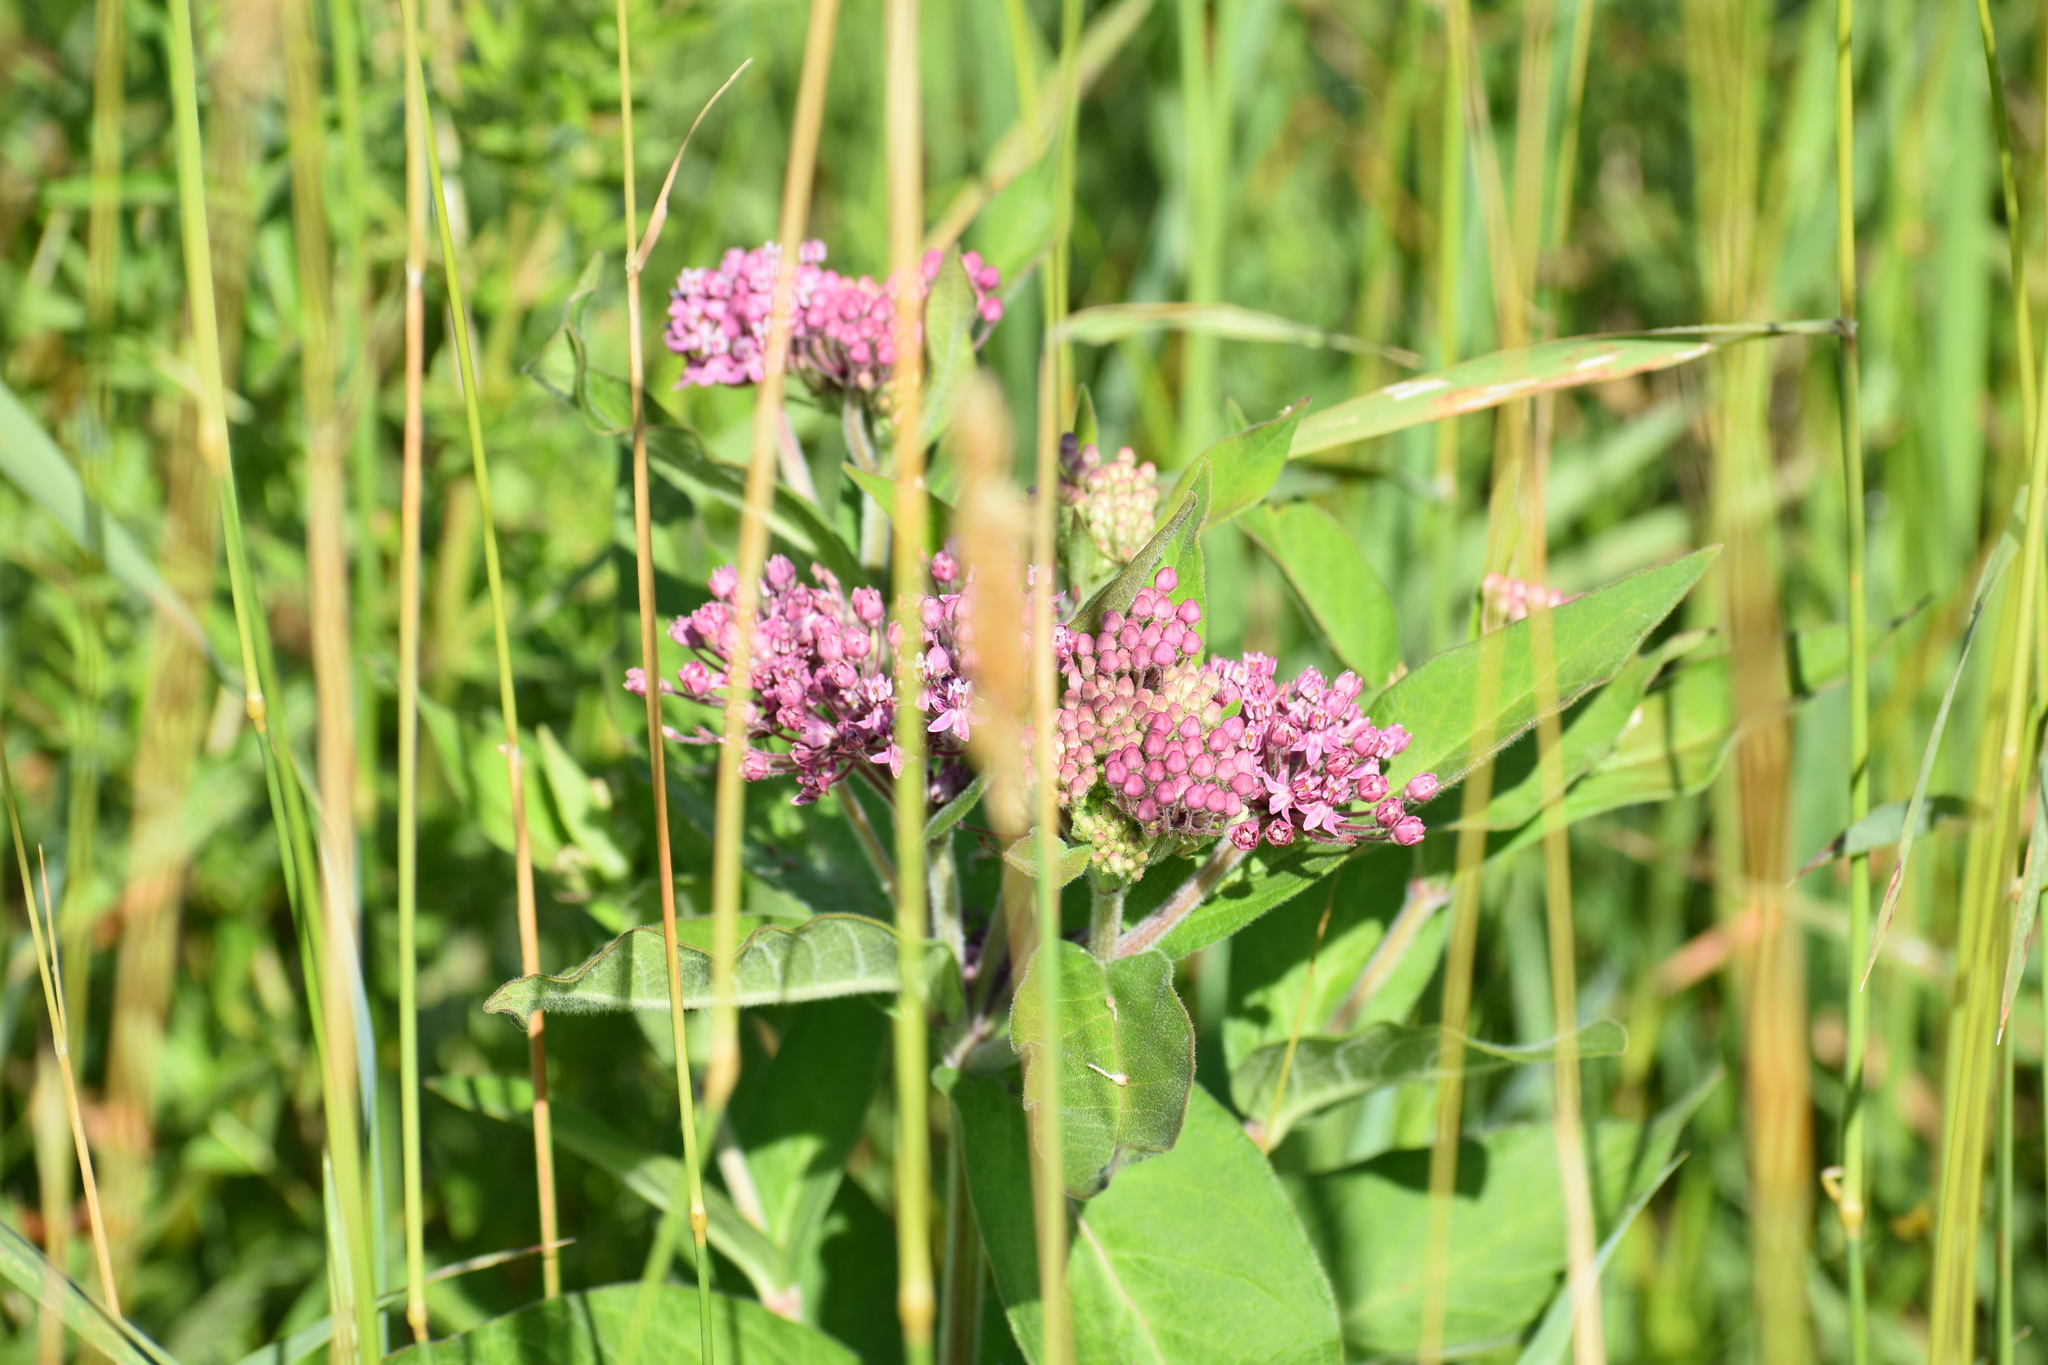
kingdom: Plantae
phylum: Tracheophyta
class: Magnoliopsida
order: Gentianales
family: Apocynaceae
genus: Asclepias
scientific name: Asclepias incarnata
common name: Swamp milkweed
